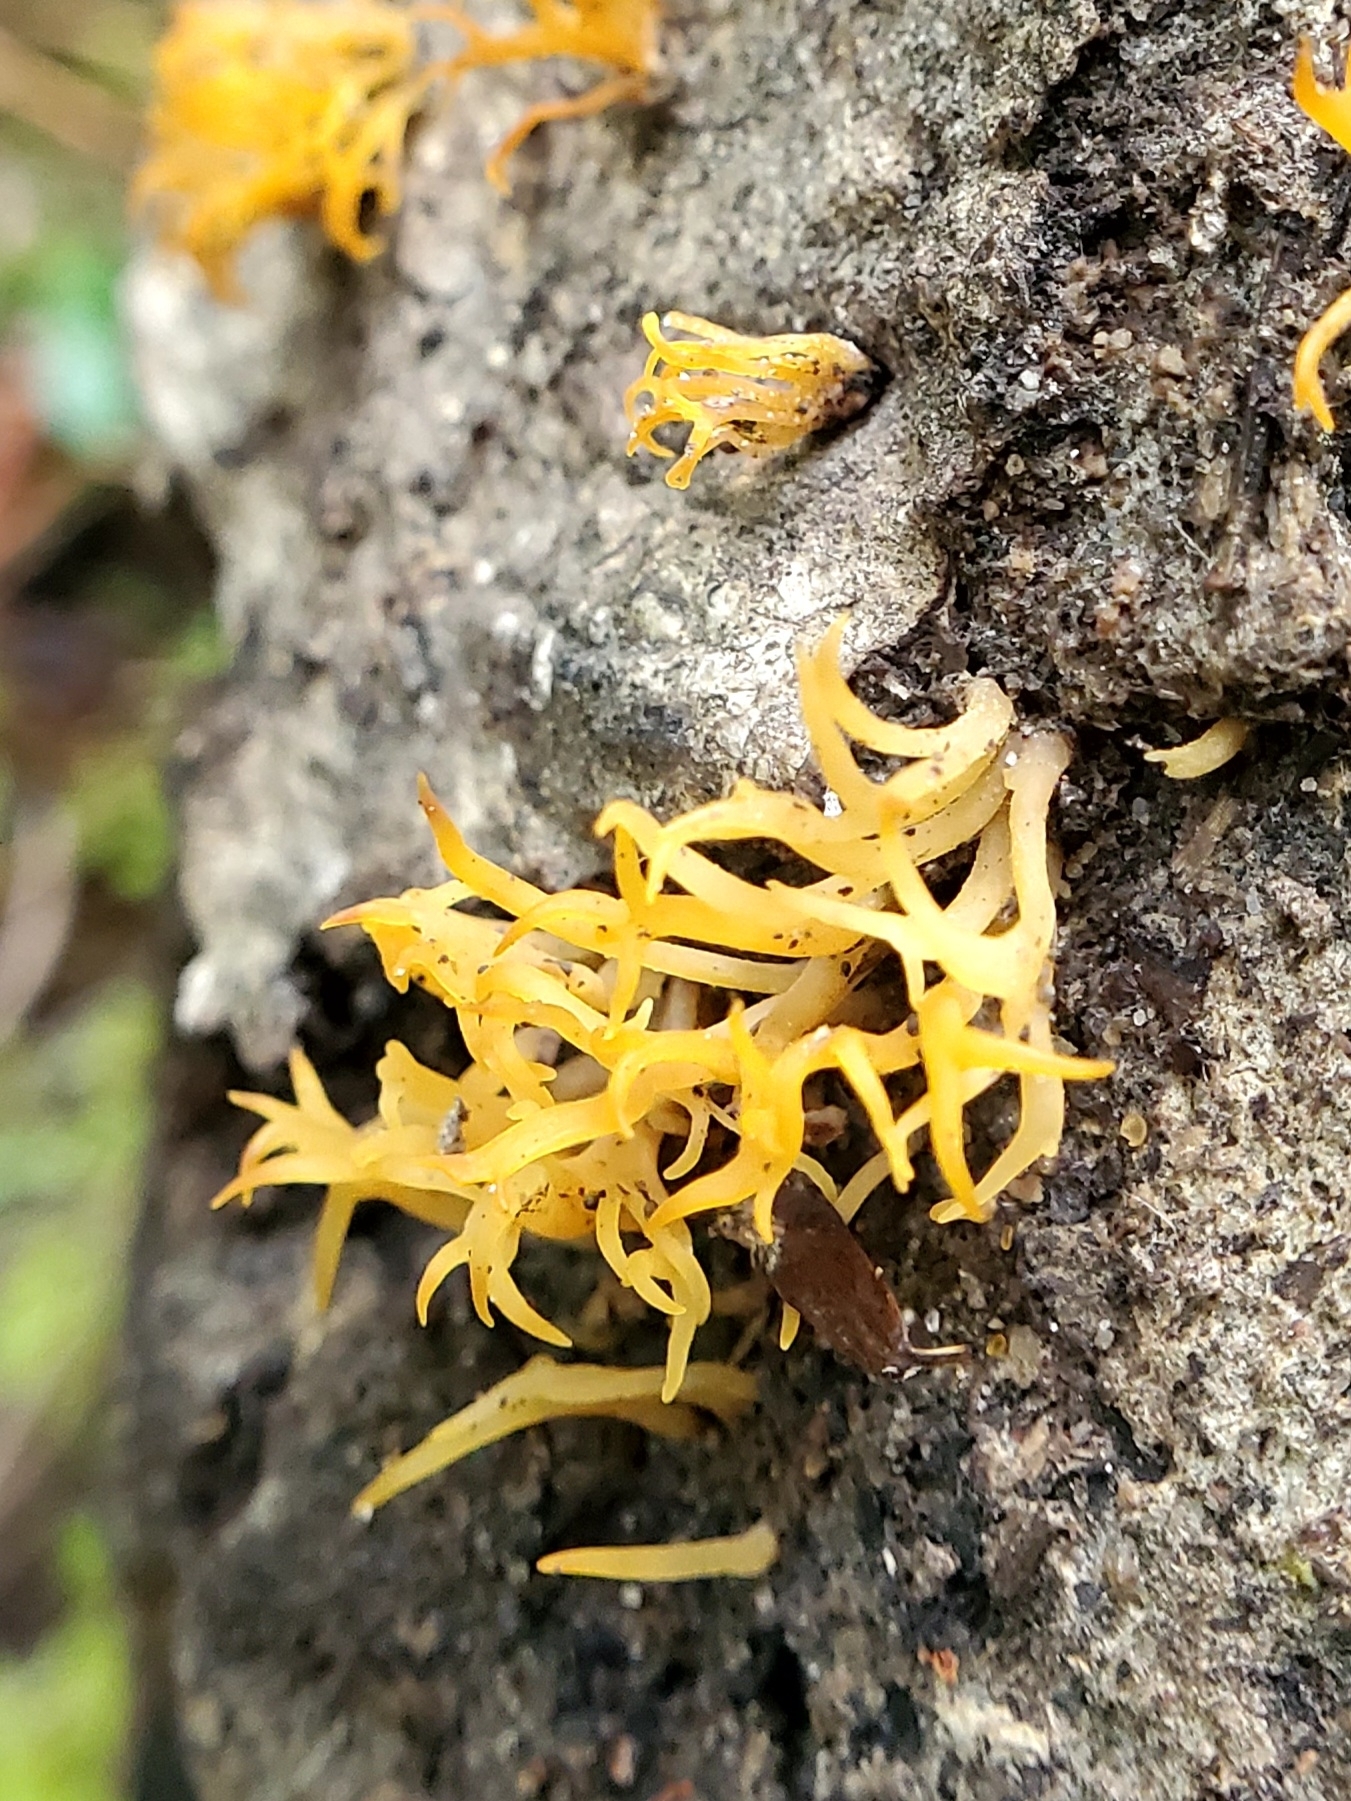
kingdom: Fungi
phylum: Basidiomycota
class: Dacrymycetes
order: Dacrymycetales
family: Dacrymycetaceae
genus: Calocera
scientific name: Calocera cornea
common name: Small stagshorn
